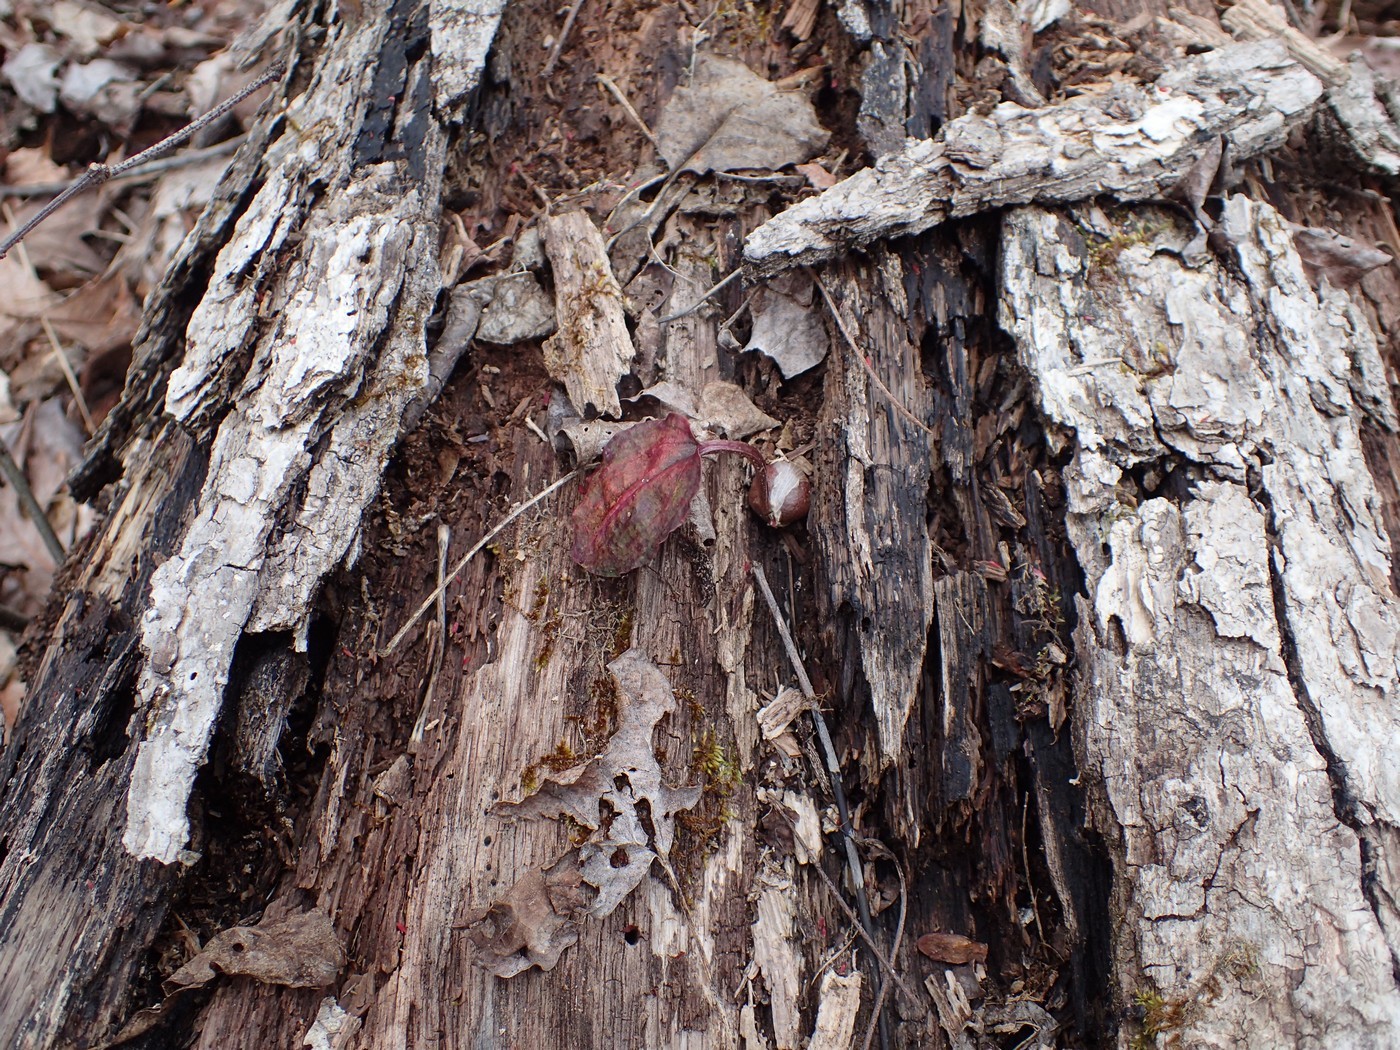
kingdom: Plantae
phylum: Tracheophyta
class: Liliopsida
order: Asparagales
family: Orchidaceae
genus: Tipularia
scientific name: Tipularia discolor
